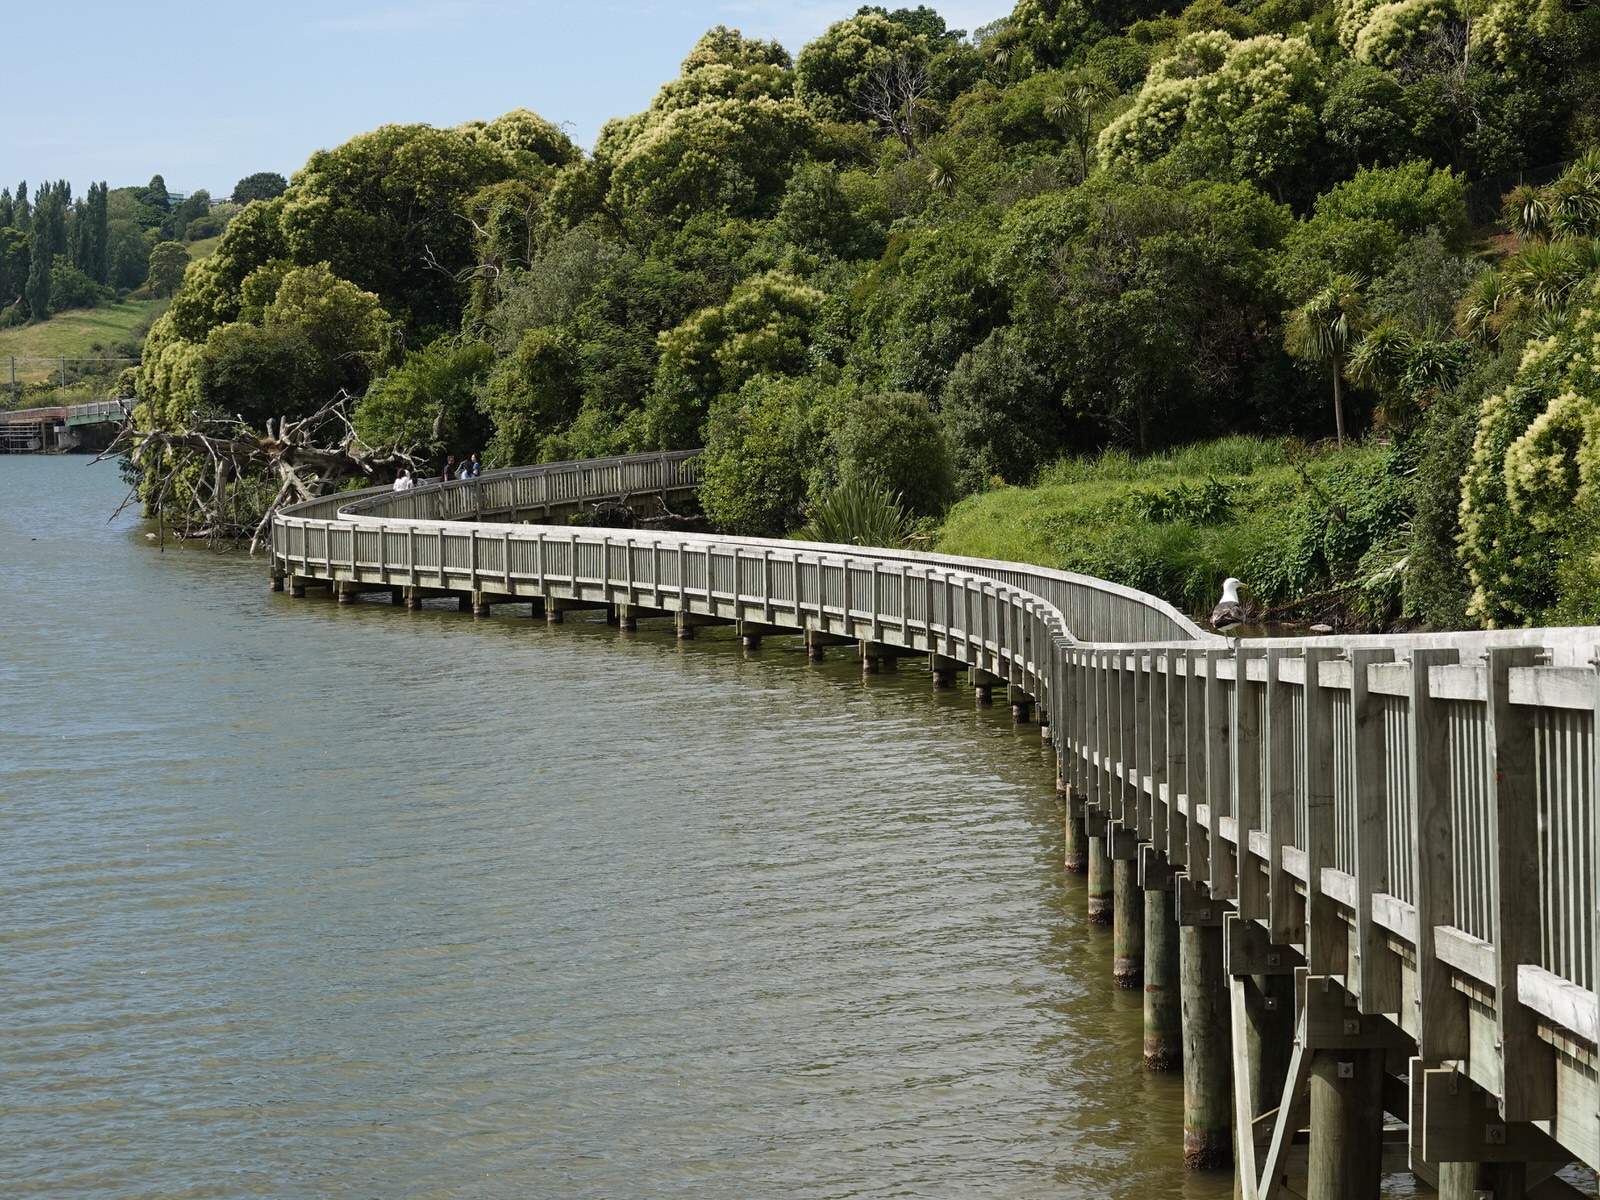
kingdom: Animalia
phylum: Chordata
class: Aves
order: Charadriiformes
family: Laridae
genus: Larus
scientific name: Larus dominicanus
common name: Kelp gull
